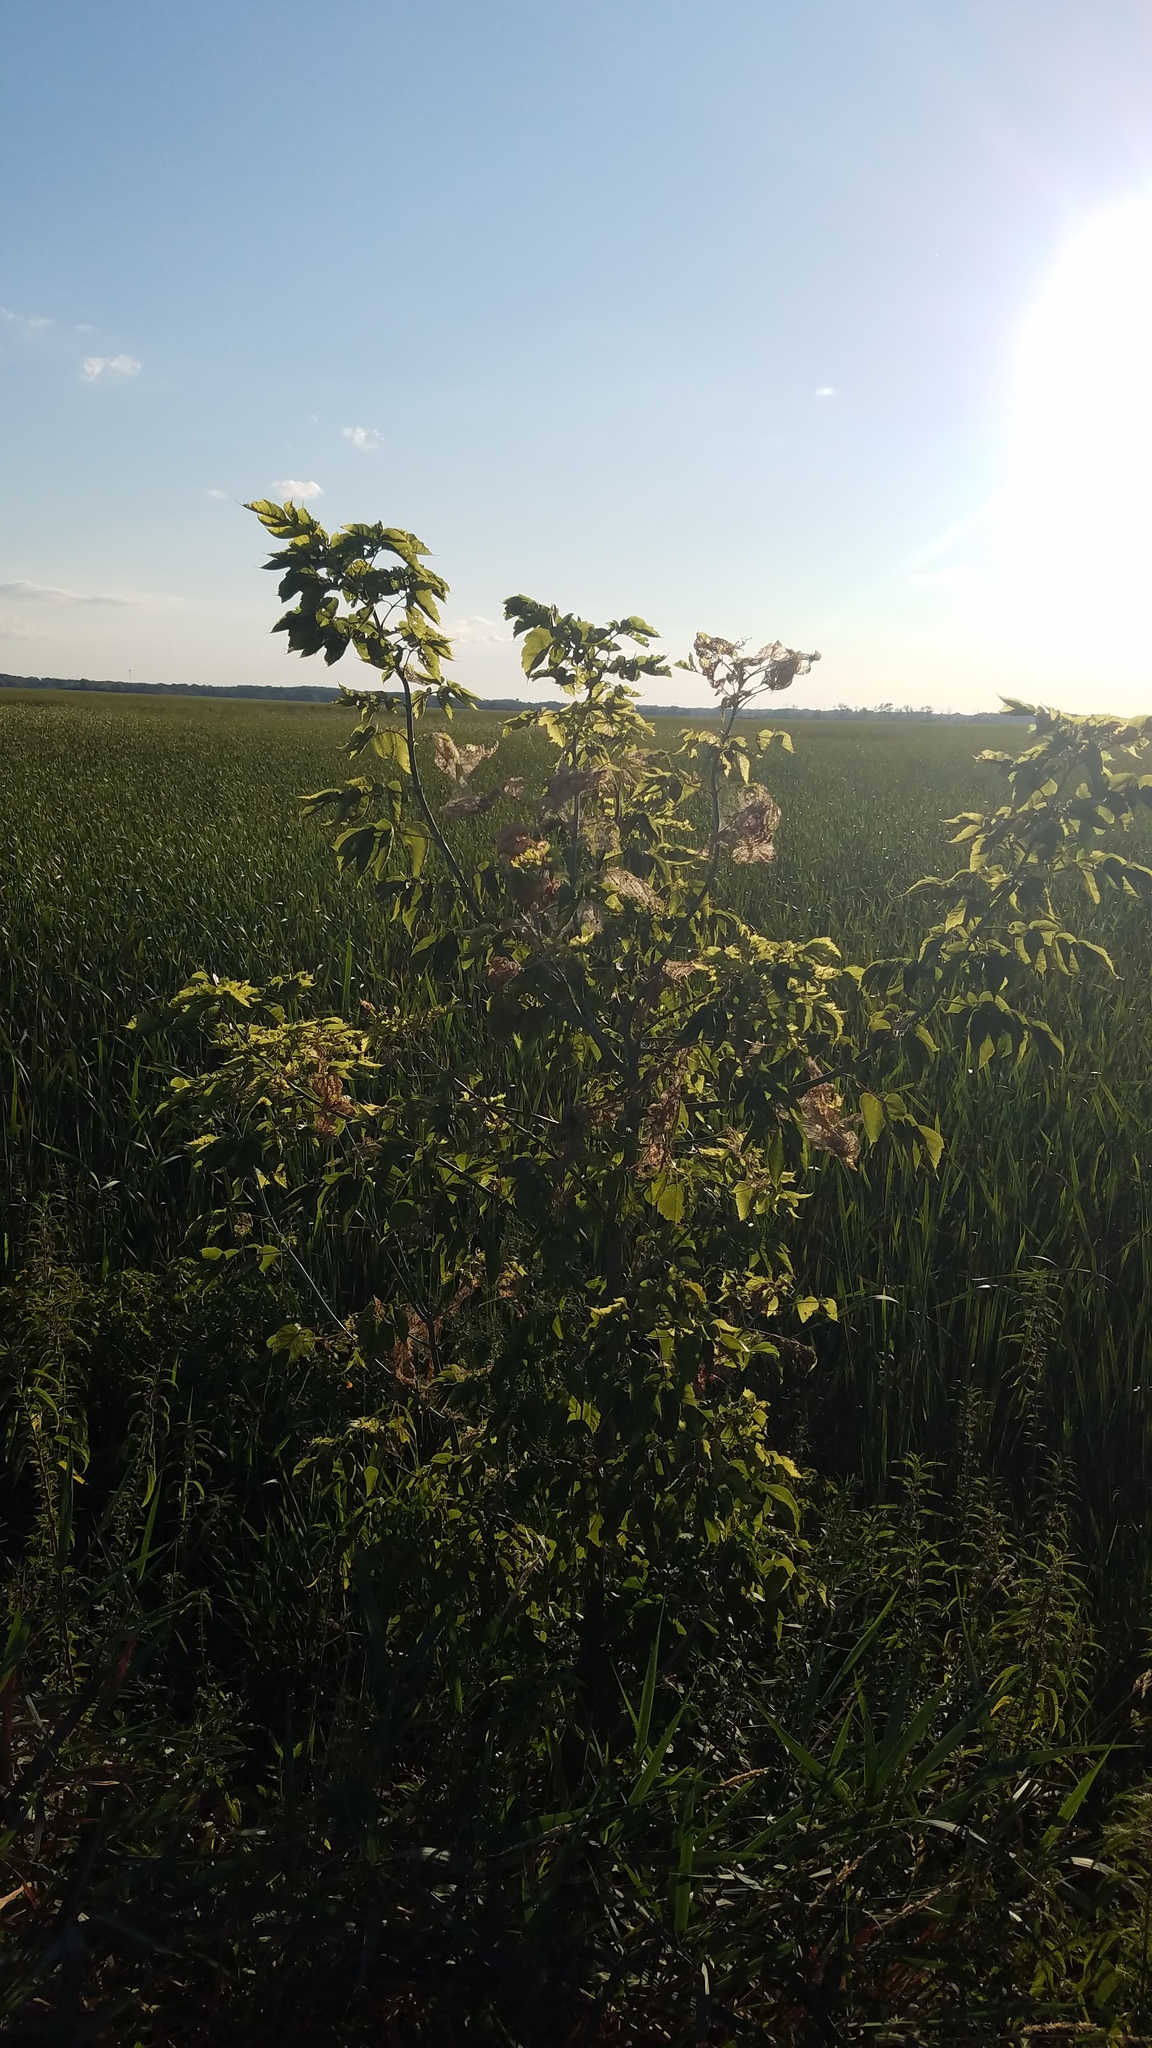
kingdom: Plantae
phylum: Tracheophyta
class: Magnoliopsida
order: Sapindales
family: Sapindaceae
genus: Acer
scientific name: Acer negundo
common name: Ashleaf maple
